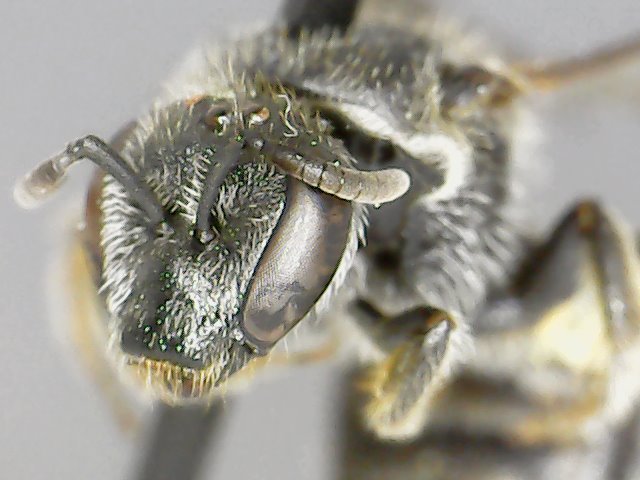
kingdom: Animalia
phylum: Arthropoda
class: Insecta
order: Hymenoptera
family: Halictidae
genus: Lasioglossum
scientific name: Lasioglossum pectorale
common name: Rugose-chested sweat bee
